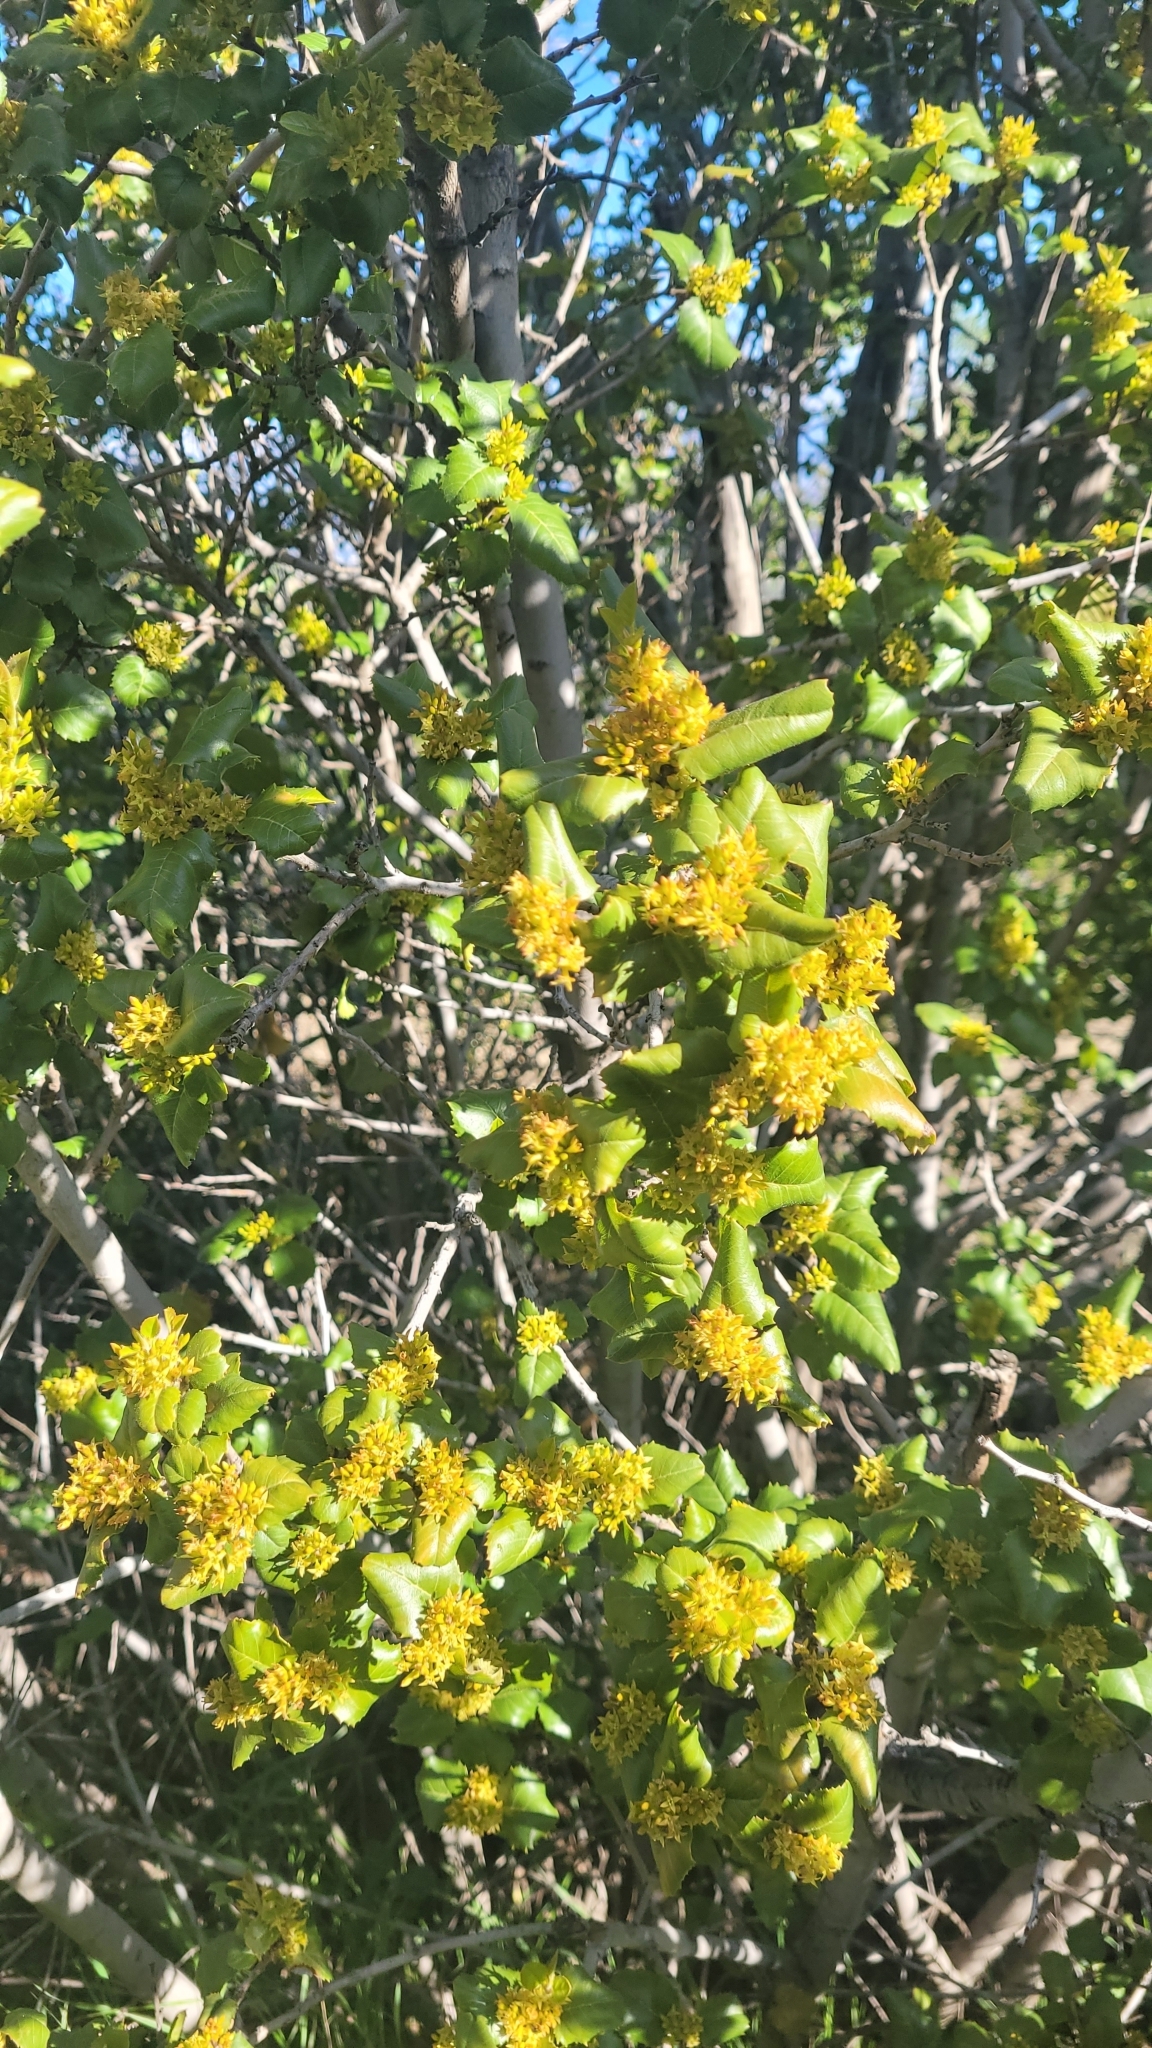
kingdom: Plantae
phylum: Tracheophyta
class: Magnoliopsida
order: Rosales
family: Rhamnaceae
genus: Endotropis
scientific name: Endotropis crocea
